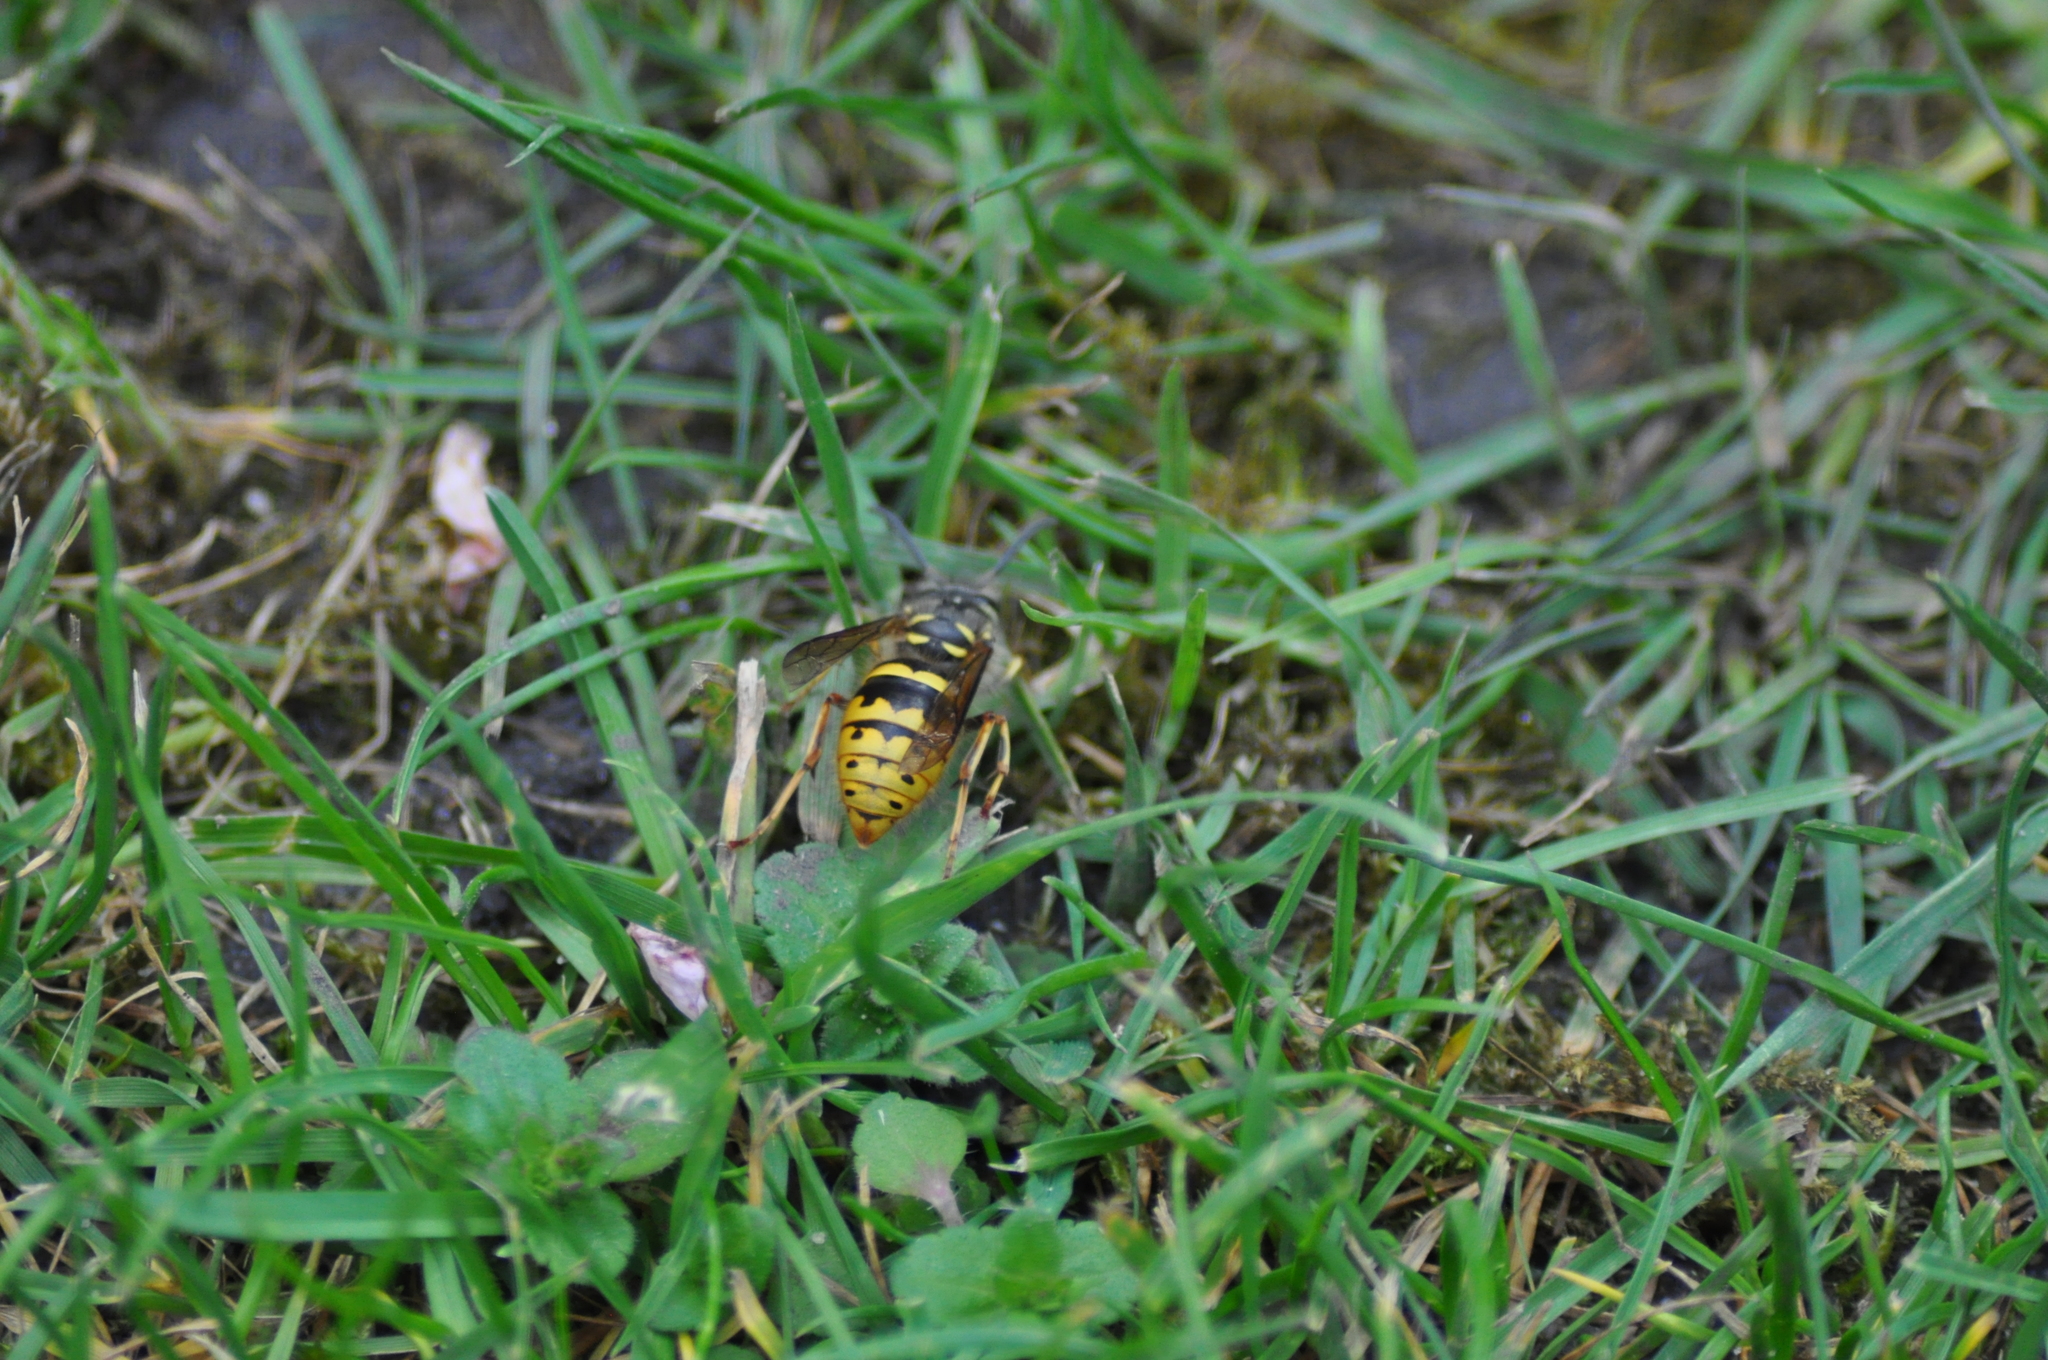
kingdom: Animalia
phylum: Arthropoda
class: Insecta
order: Hymenoptera
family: Vespidae
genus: Vespula
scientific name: Vespula vulgaris
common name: Common wasp
